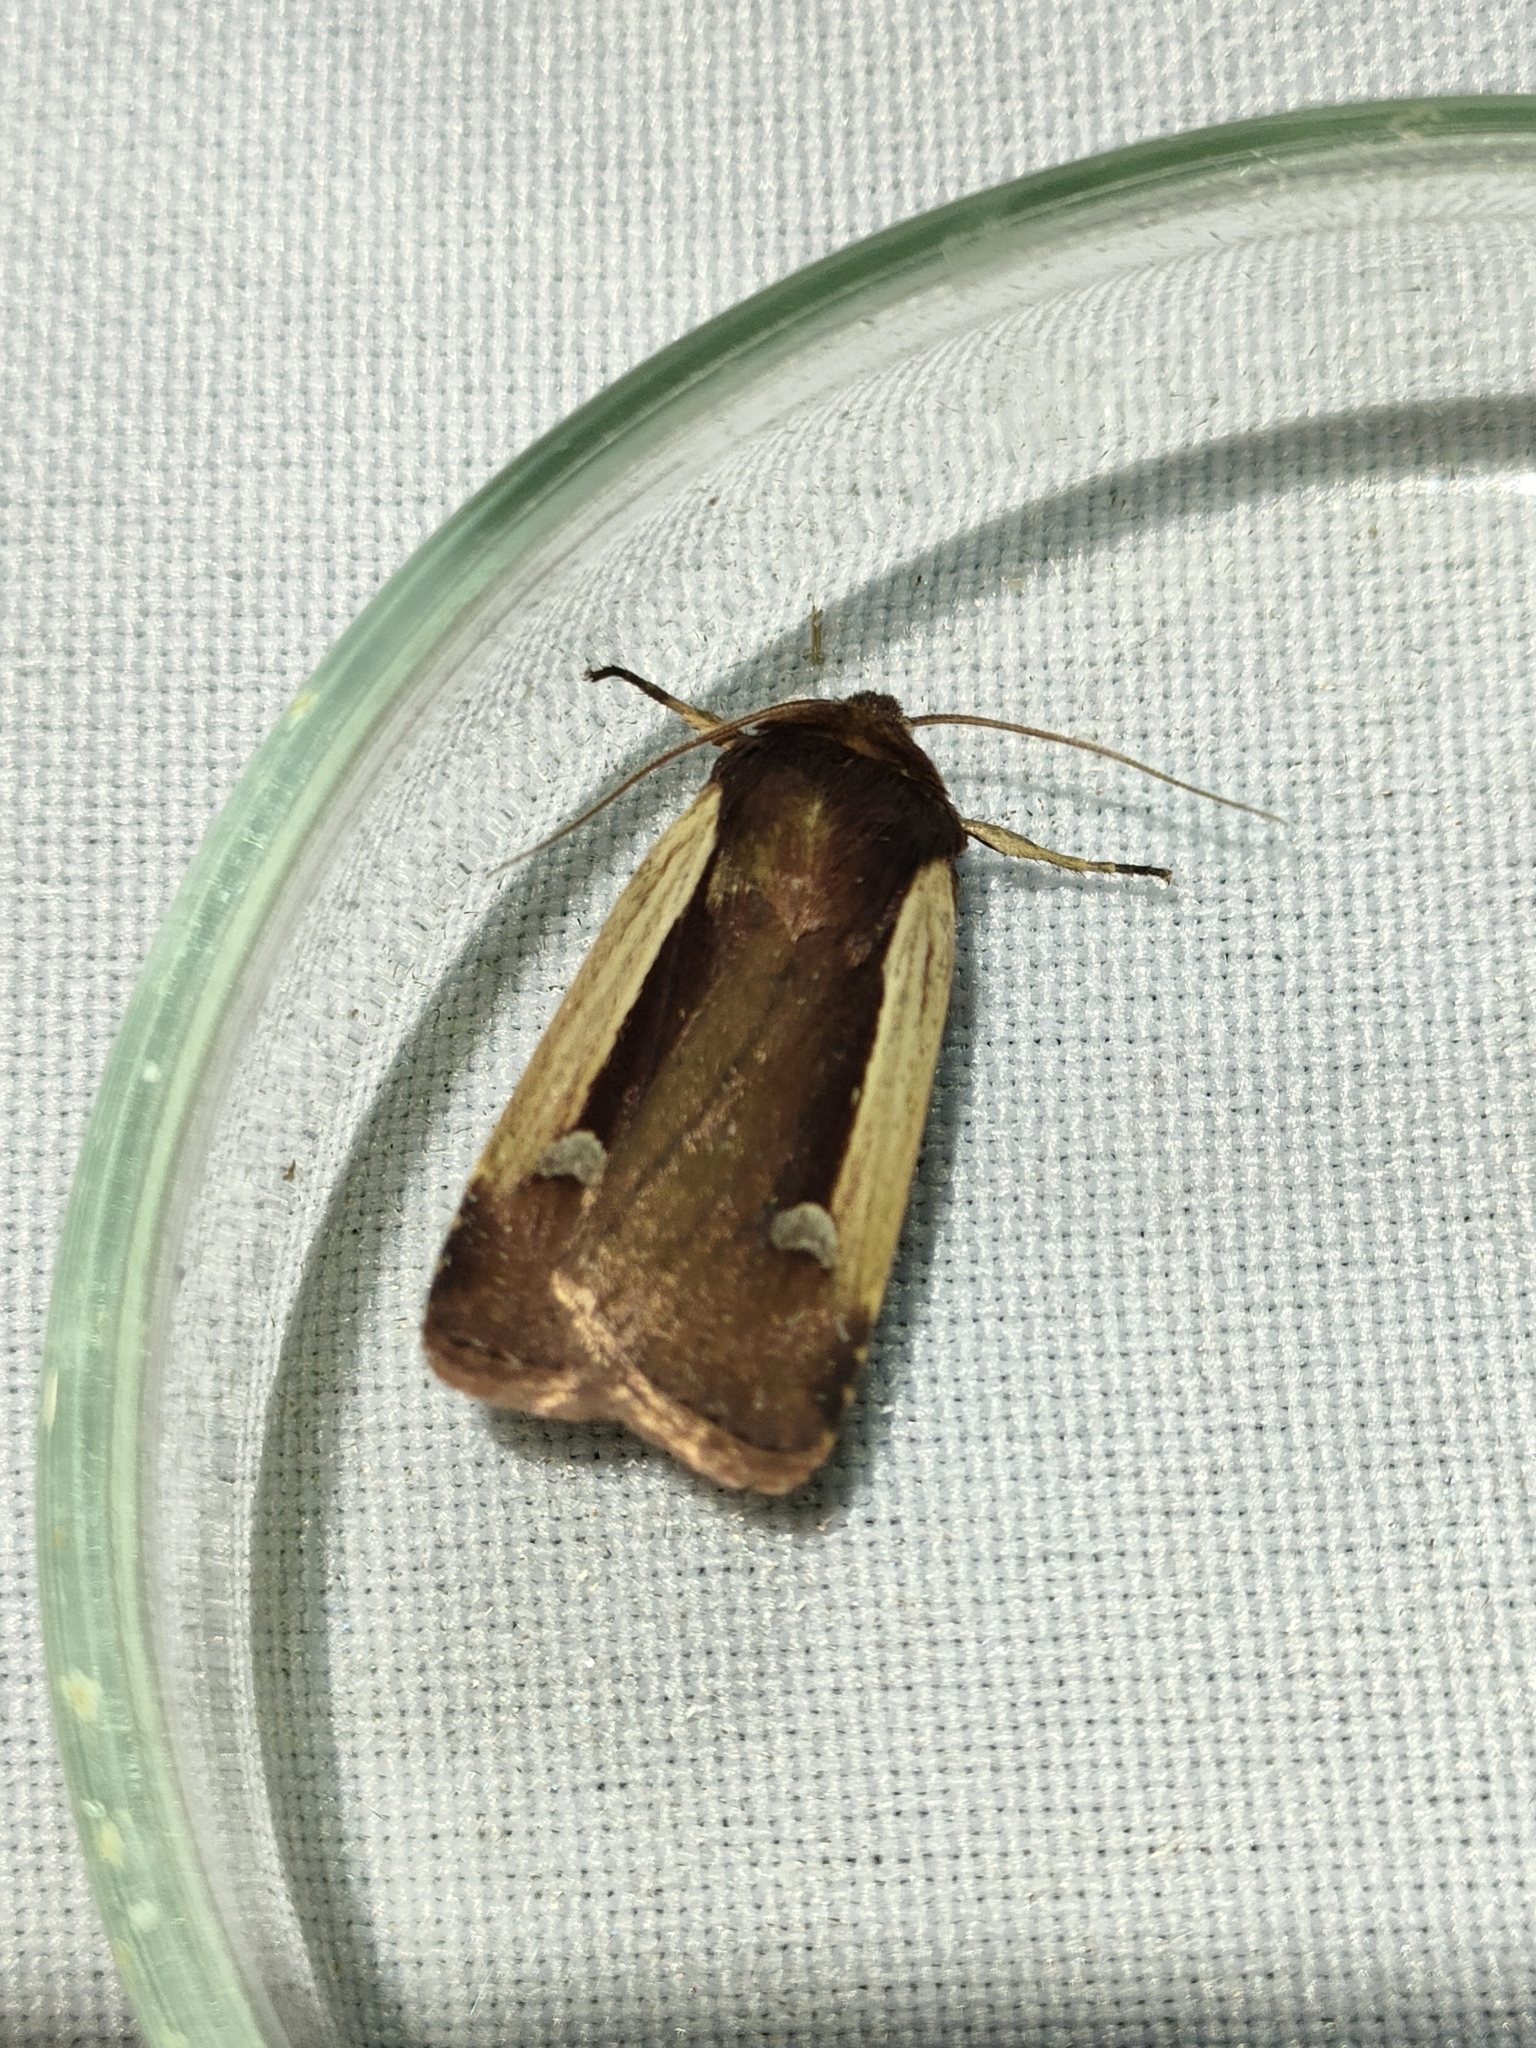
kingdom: Animalia
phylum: Arthropoda
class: Insecta
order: Lepidoptera
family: Noctuidae
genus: Ochropleura
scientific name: Ochropleura plecta
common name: Flame shoulder
